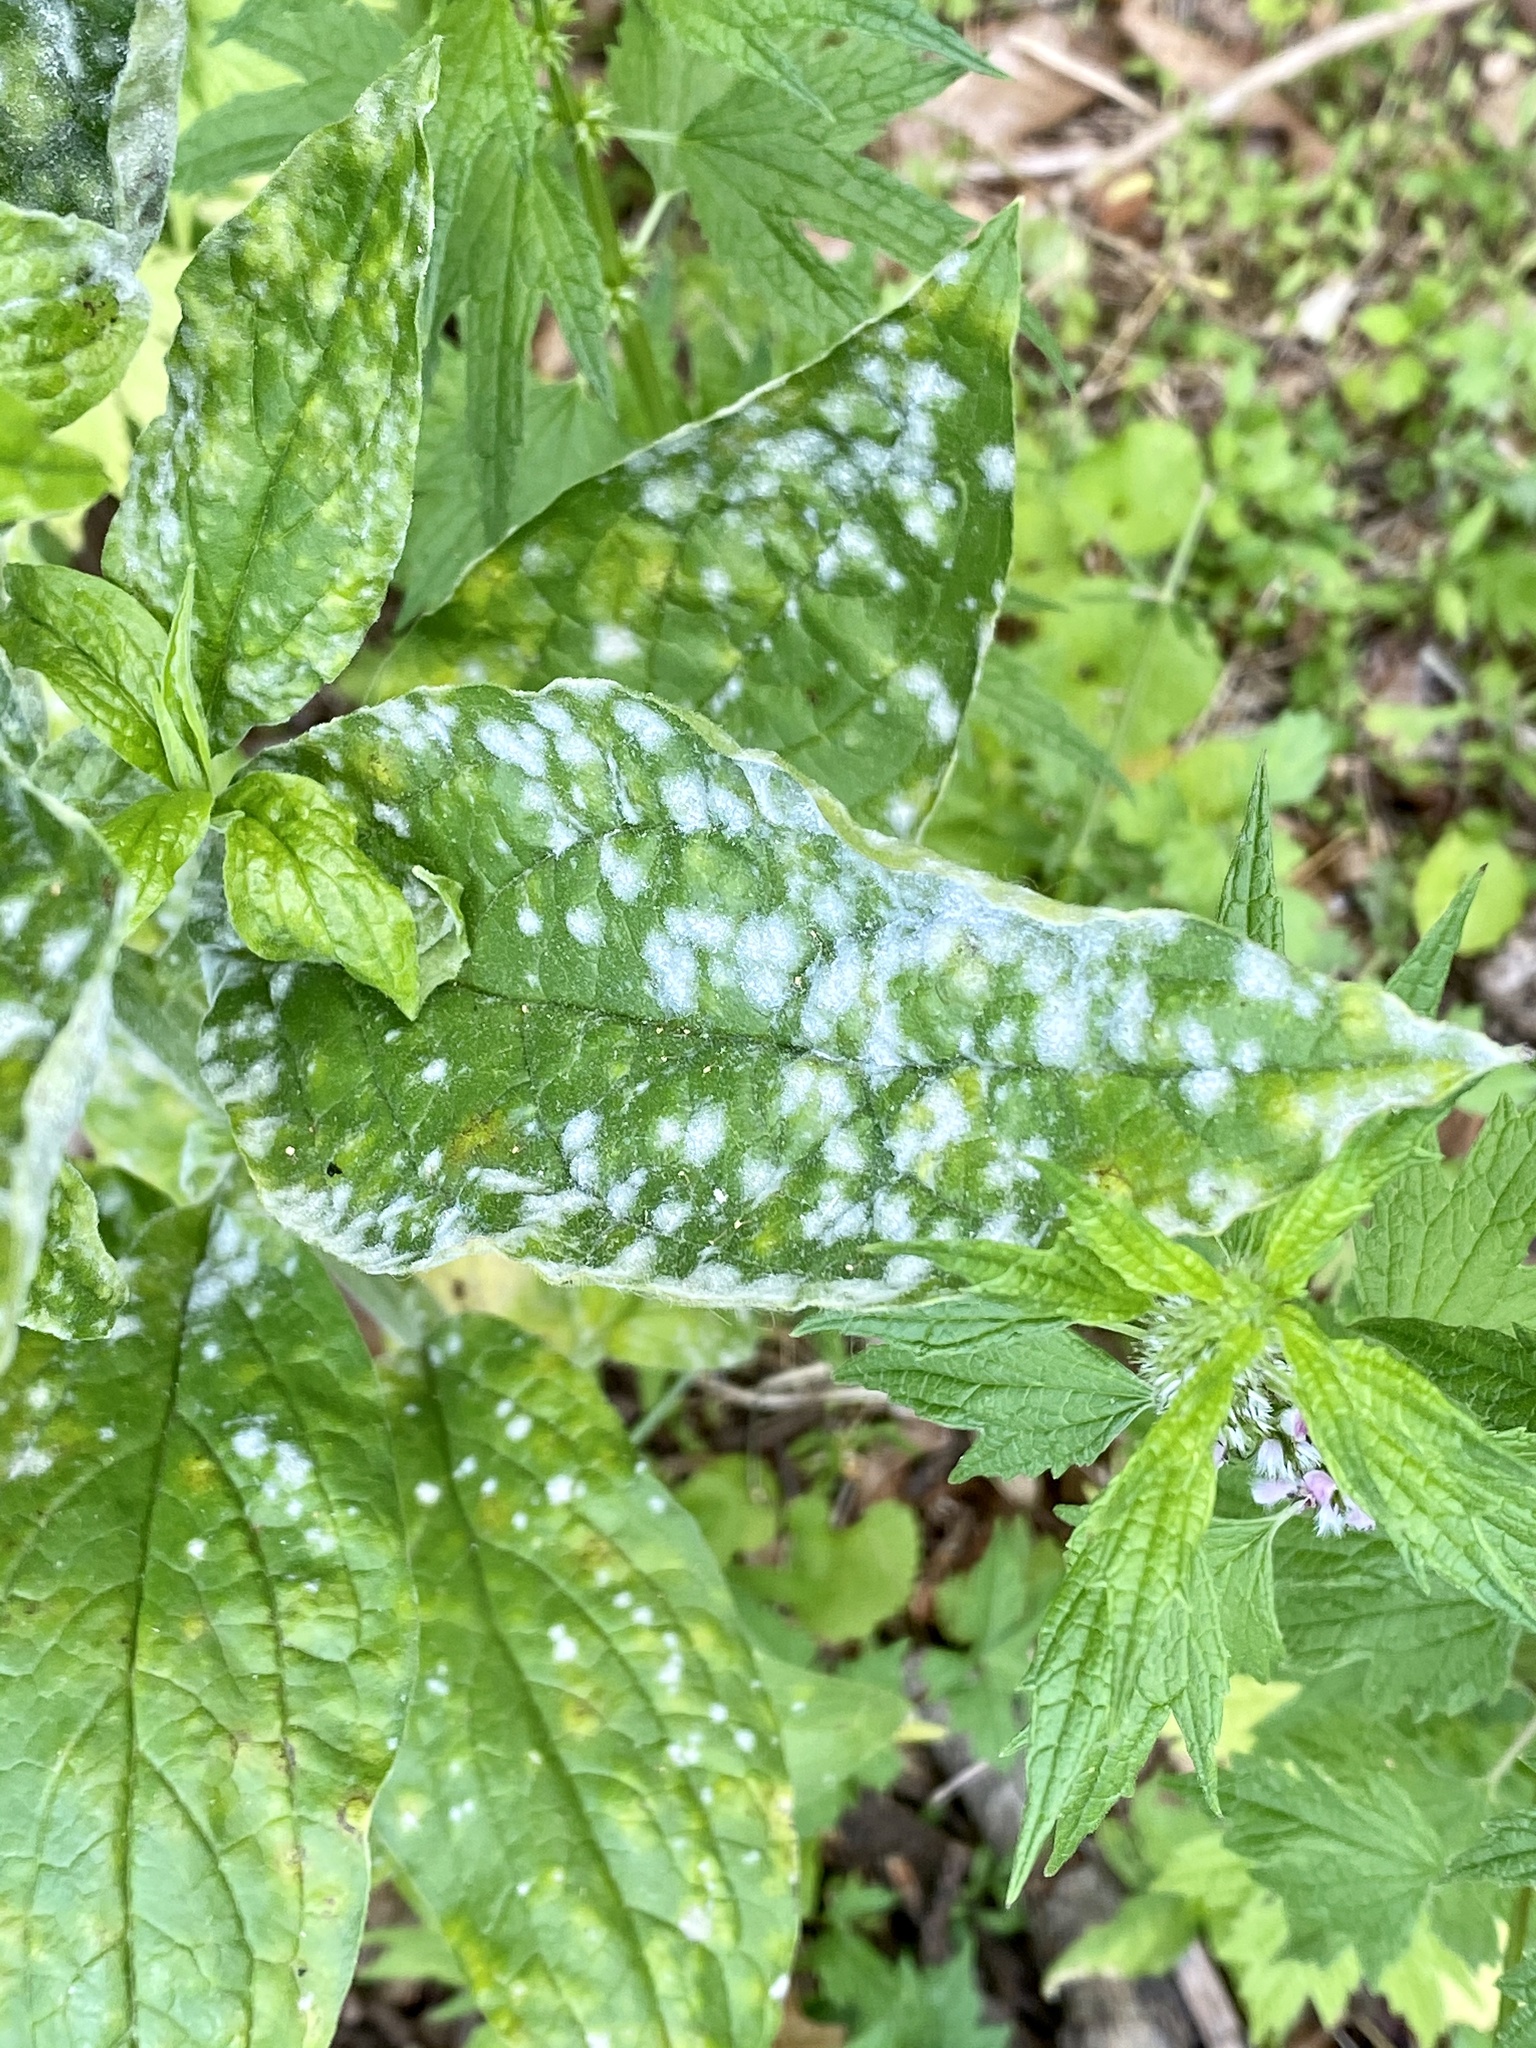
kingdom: Plantae
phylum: Tracheophyta
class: Magnoliopsida
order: Boraginales
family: Boraginaceae
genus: Hackelia
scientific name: Hackelia virginiana
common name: Beggar's-lice
